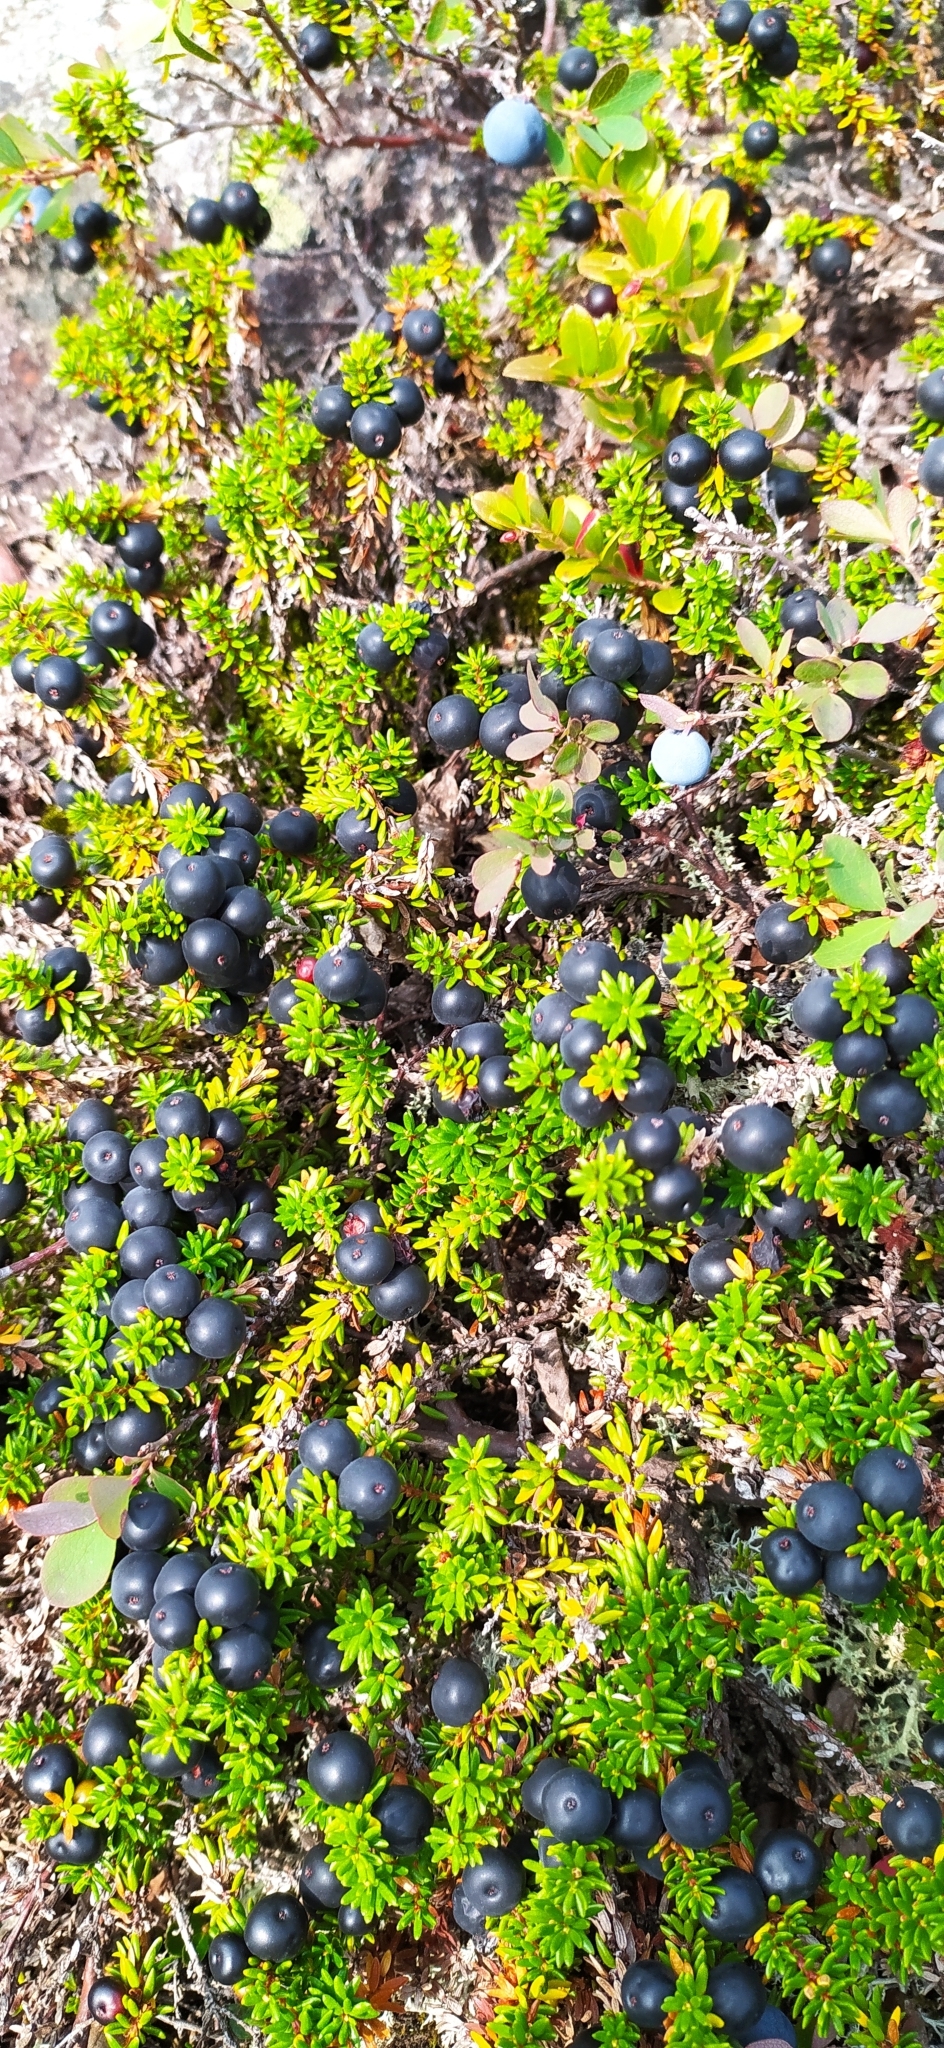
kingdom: Plantae
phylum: Tracheophyta
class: Magnoliopsida
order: Ericales
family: Ericaceae
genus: Empetrum
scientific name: Empetrum nigrum
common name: Black crowberry
